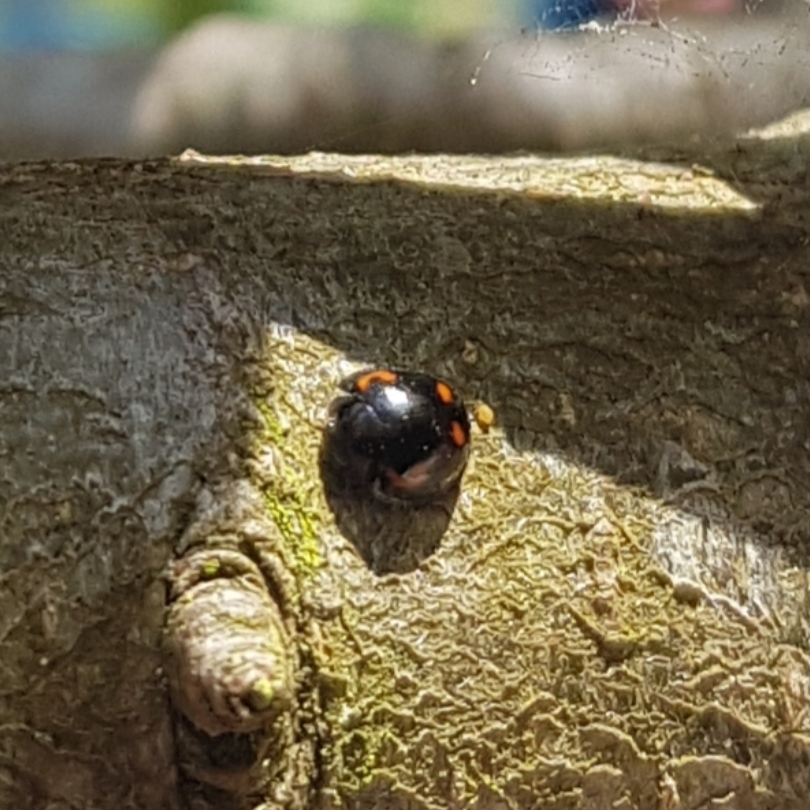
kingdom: Animalia
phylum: Arthropoda
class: Insecta
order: Coleoptera
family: Coccinellidae
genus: Brumus
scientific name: Brumus quadripustulatus
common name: Ladybird beetle
